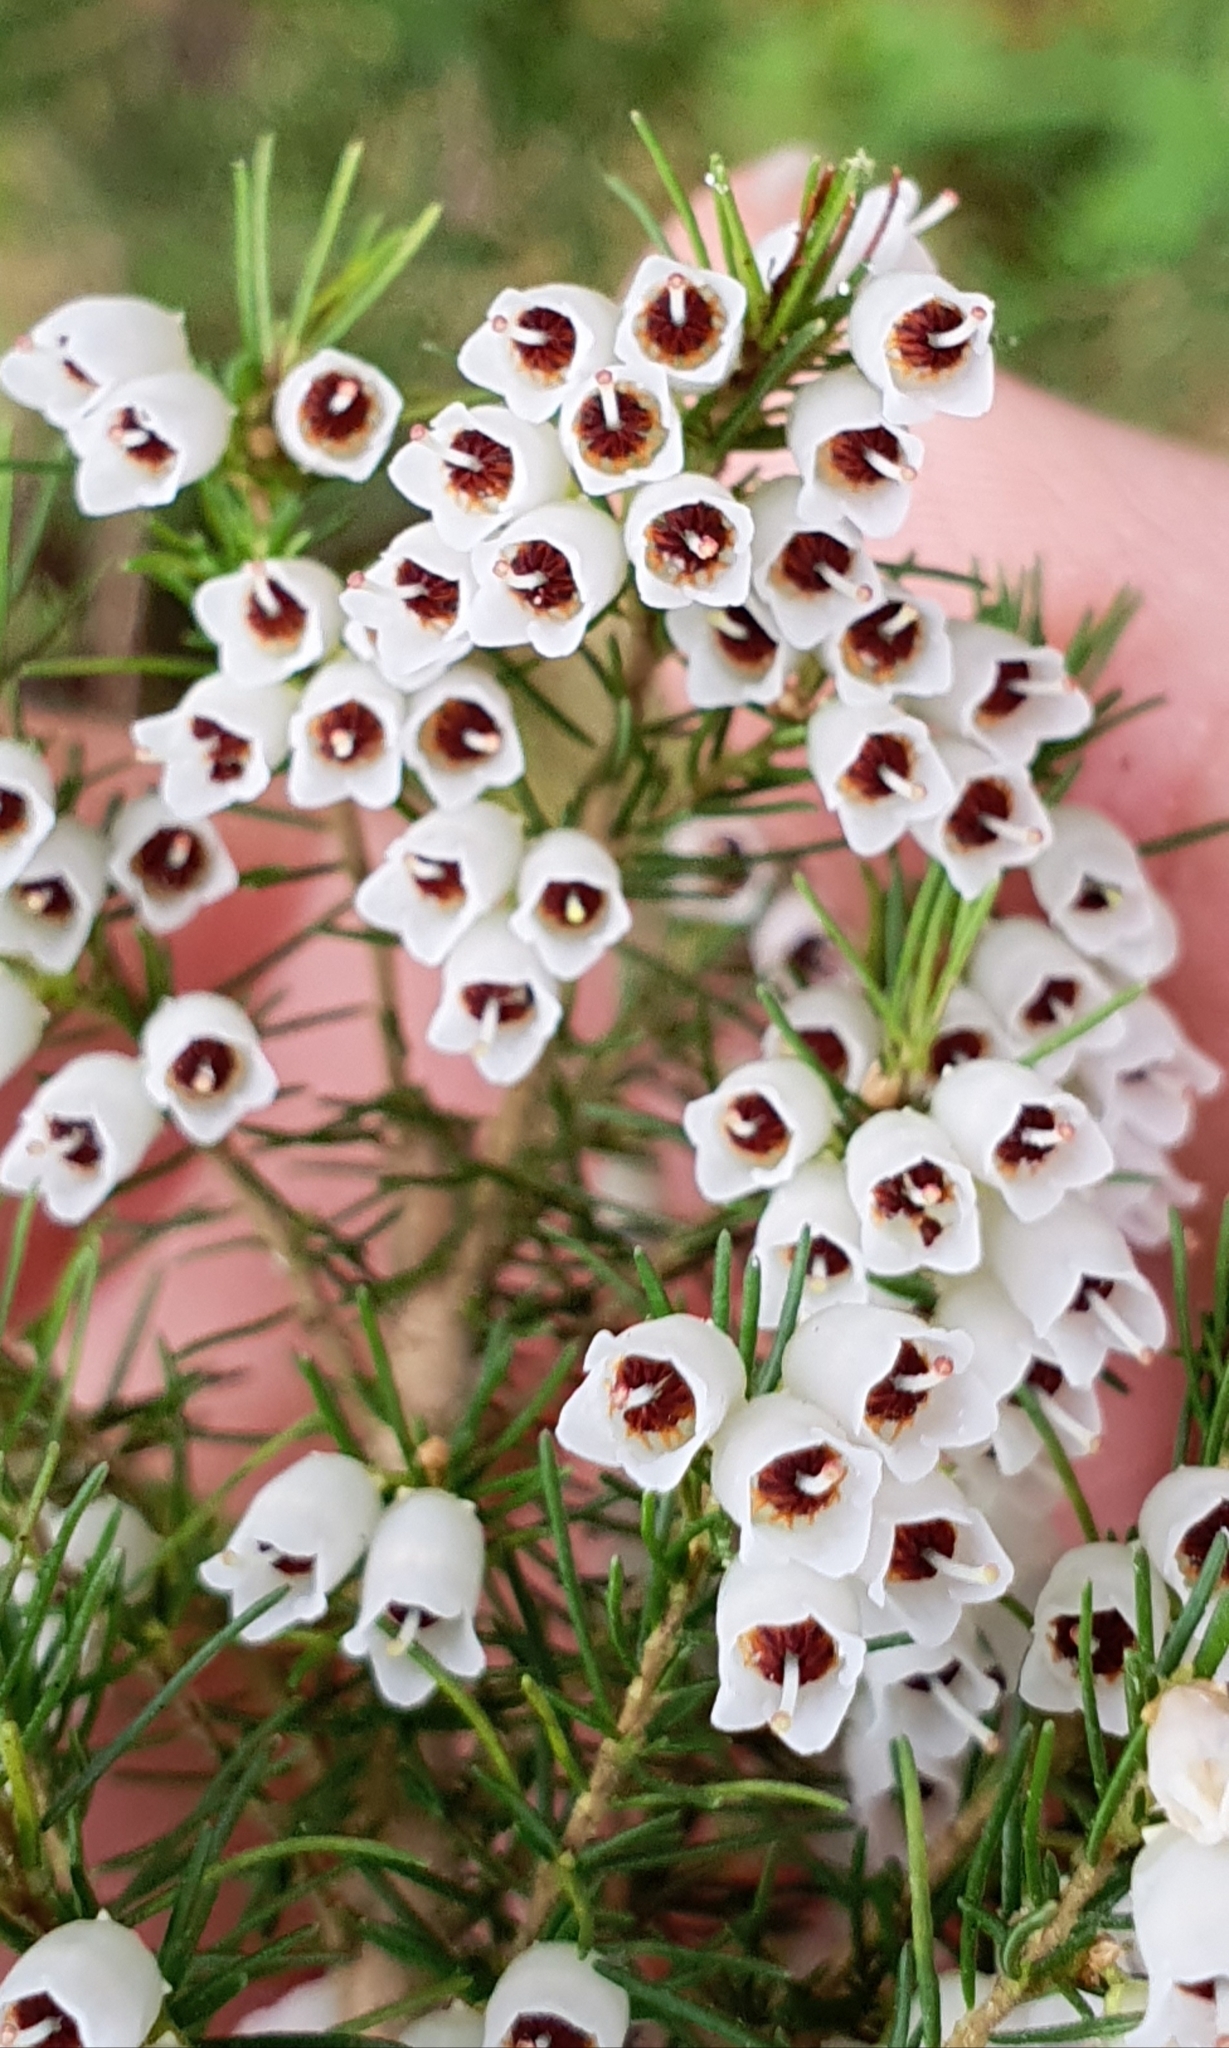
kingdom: Plantae
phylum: Tracheophyta
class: Magnoliopsida
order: Ericales
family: Ericaceae
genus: Erica
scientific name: Erica lusitanica
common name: Spanish heath
